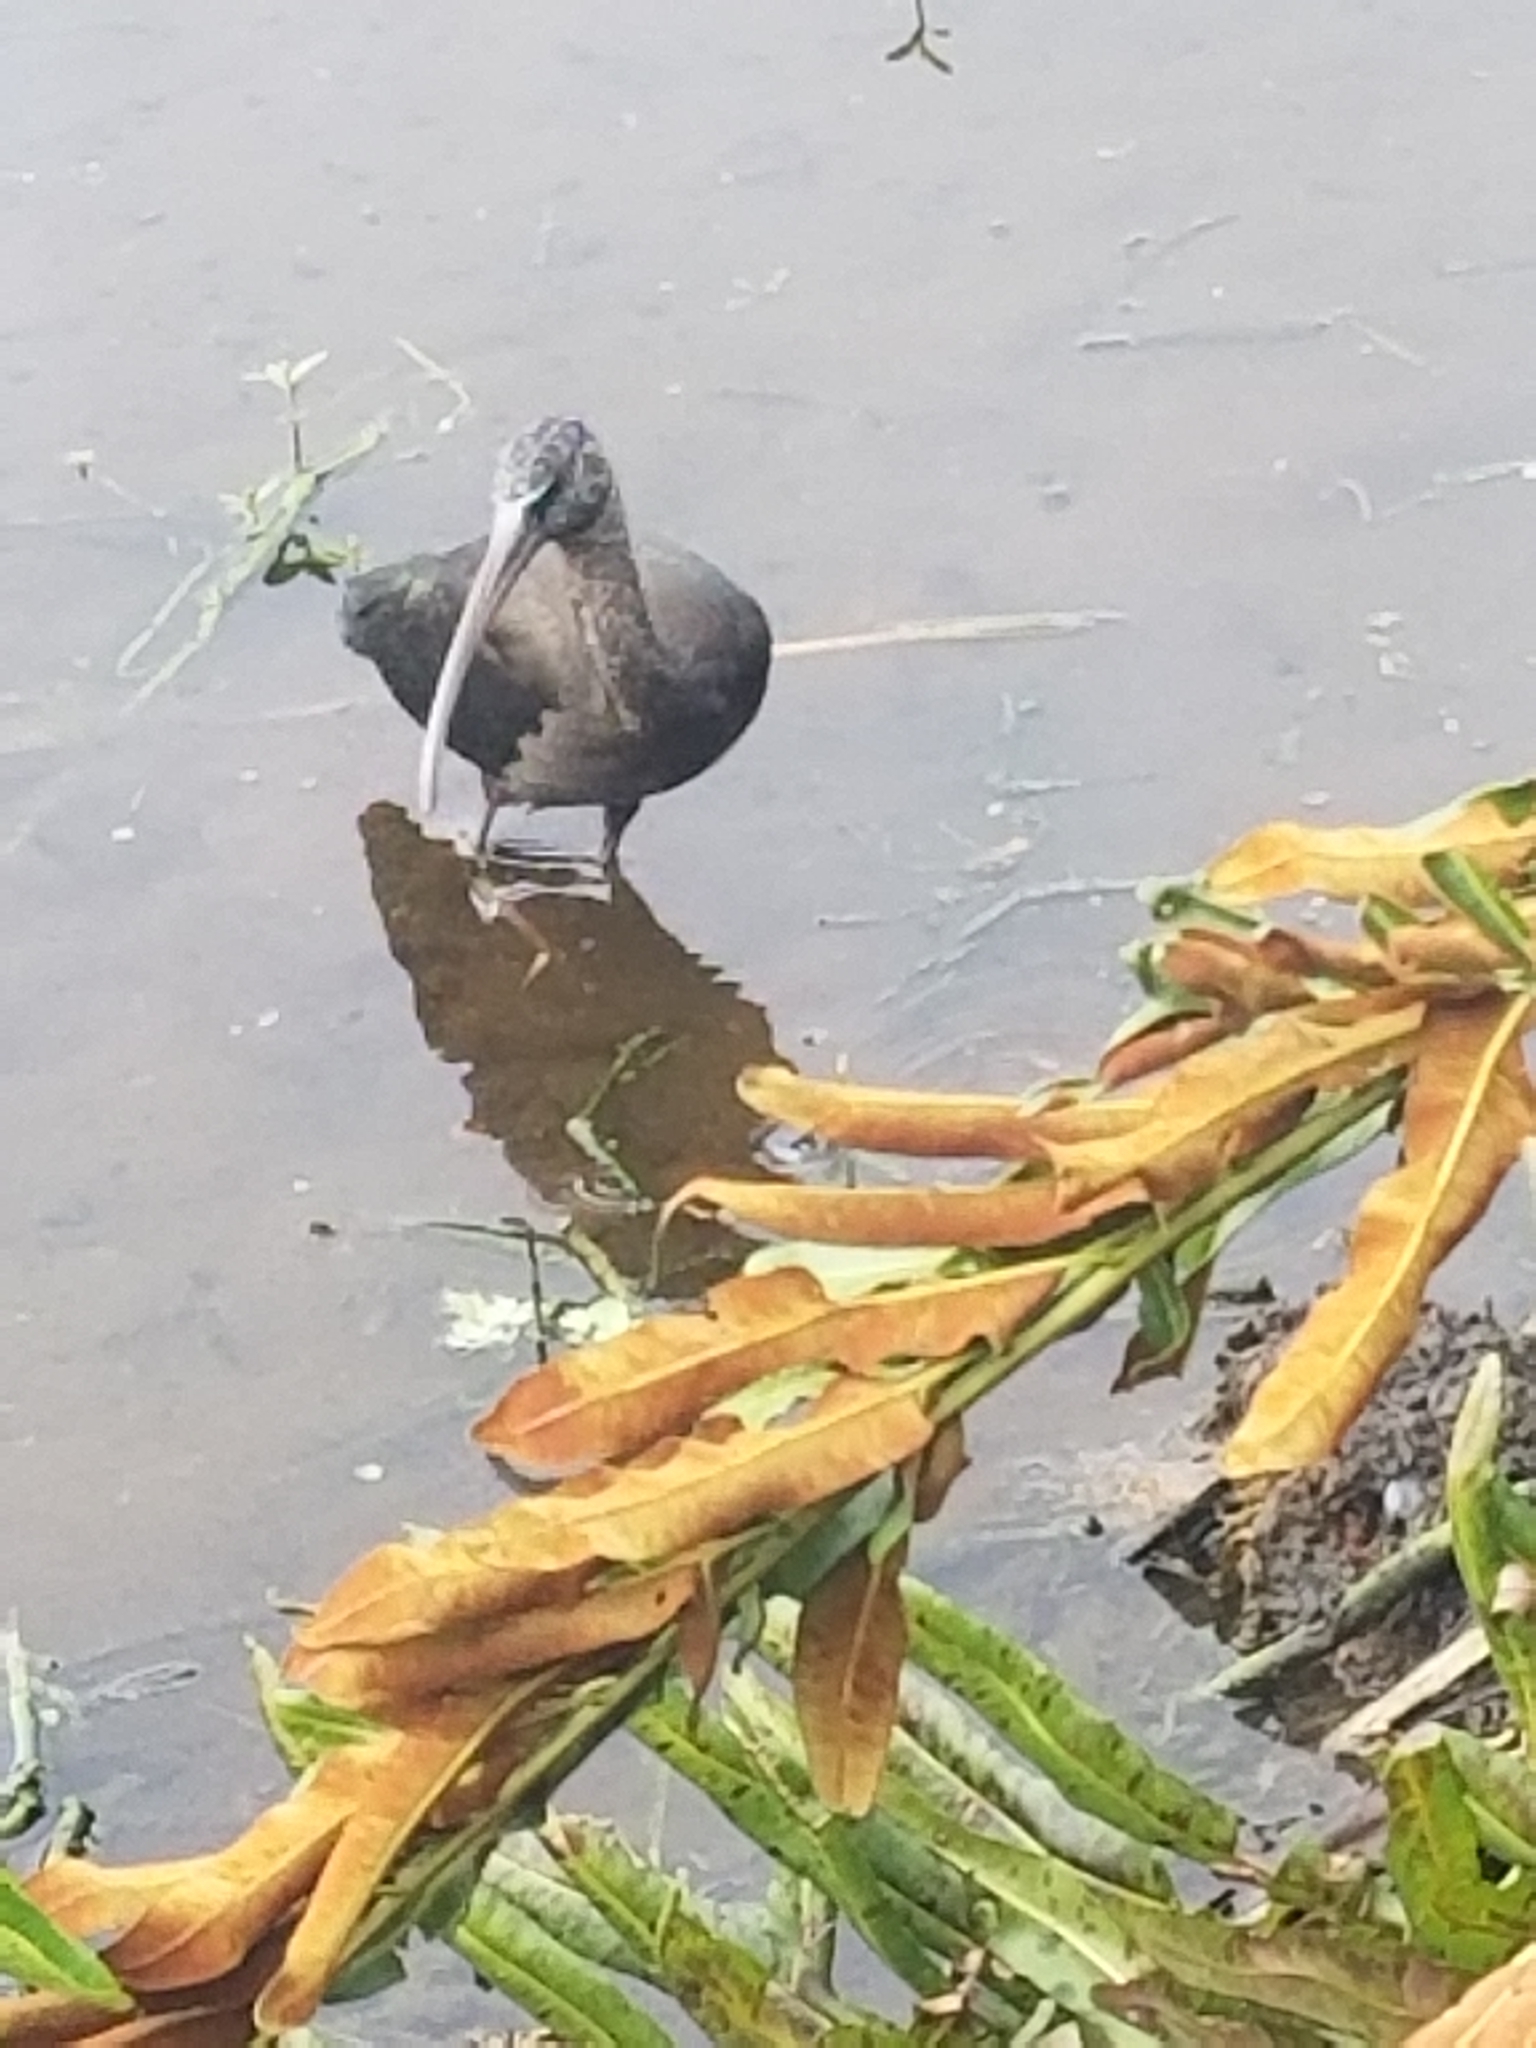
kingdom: Animalia
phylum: Chordata
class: Aves
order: Pelecaniformes
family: Threskiornithidae
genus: Plegadis
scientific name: Plegadis falcinellus
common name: Glossy ibis
